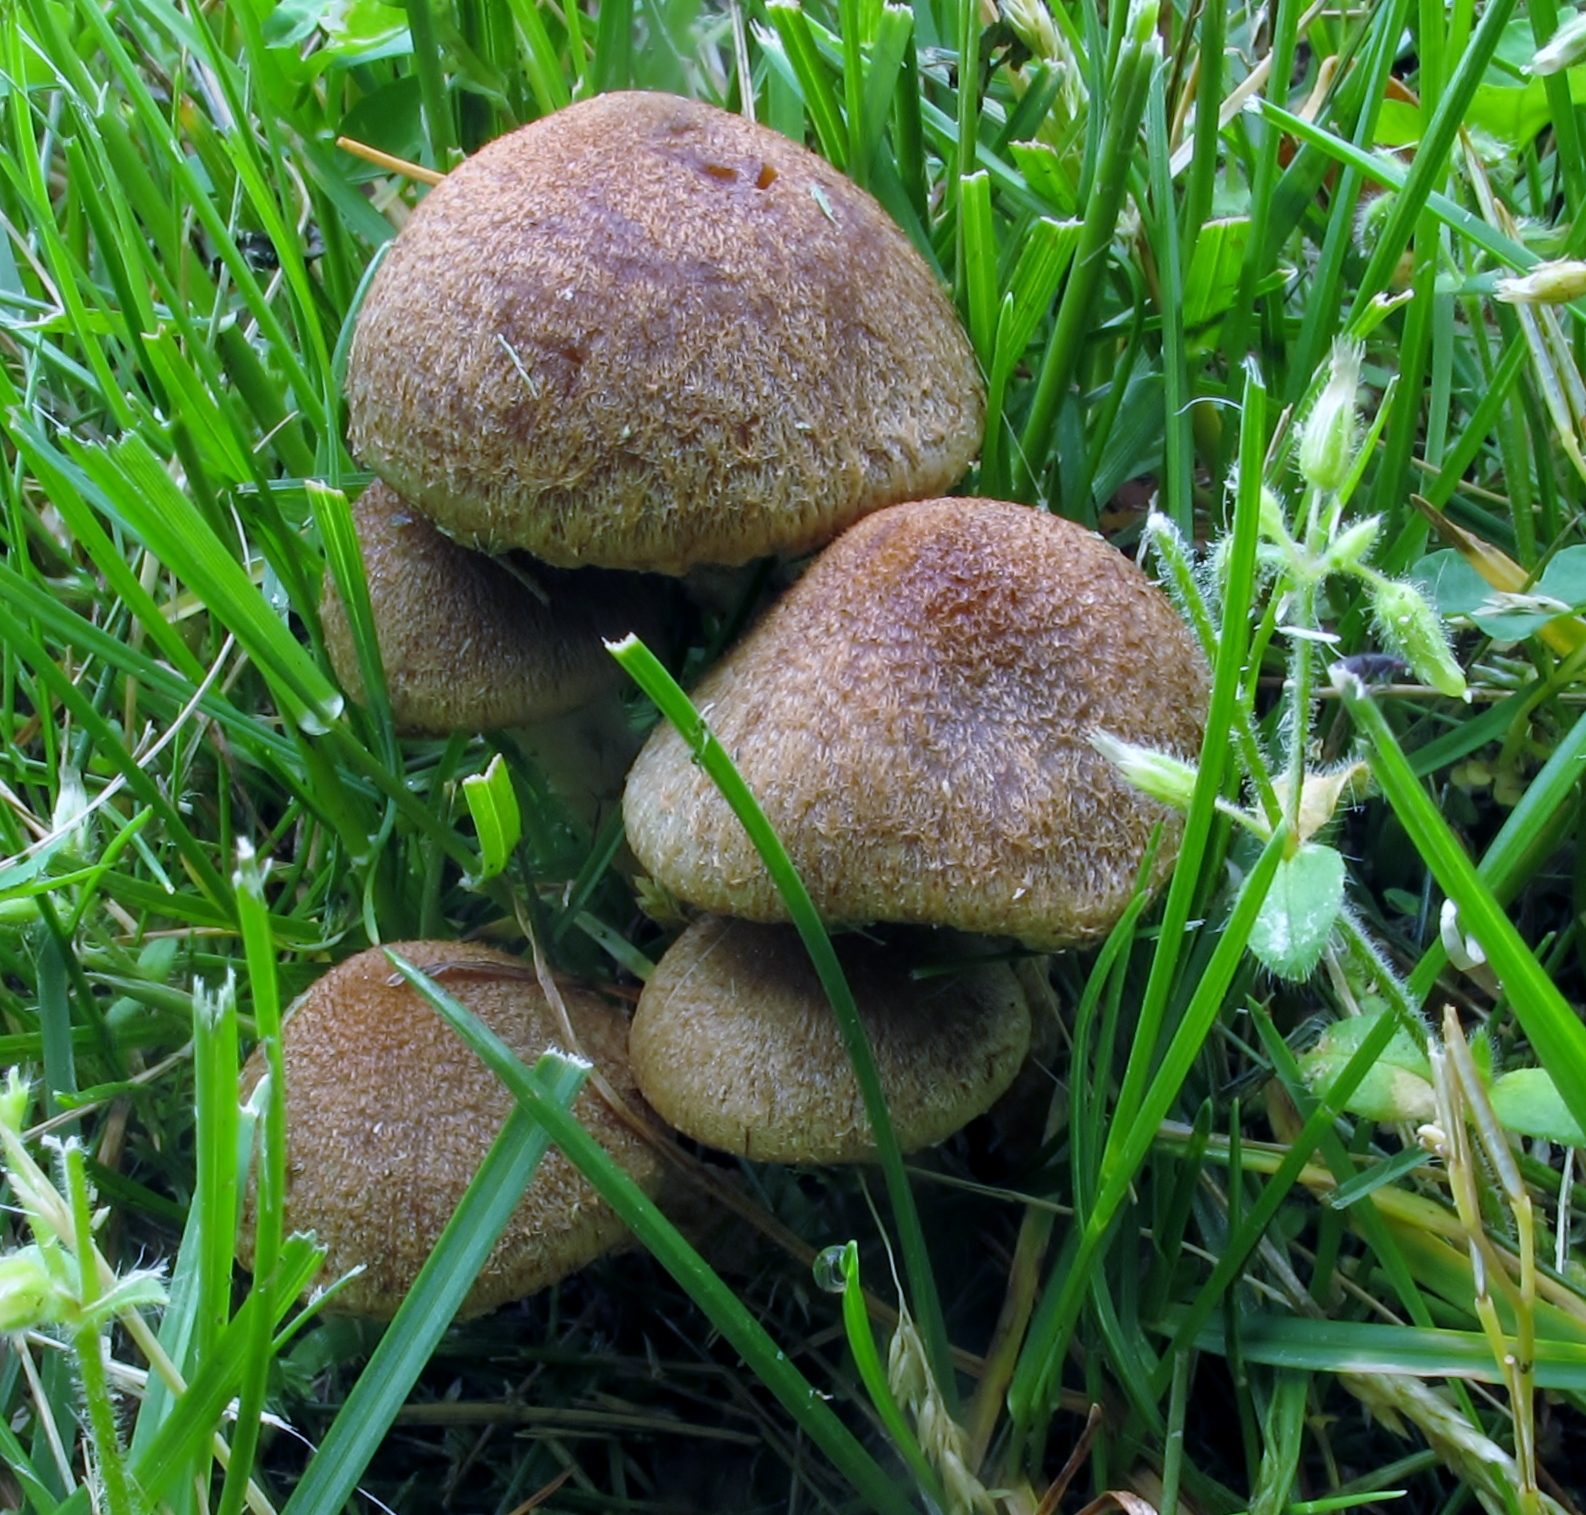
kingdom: Fungi
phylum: Basidiomycota
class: Agaricomycetes
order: Agaricales
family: Psathyrellaceae
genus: Lacrymaria
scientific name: Lacrymaria lacrymabunda
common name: Weeping widow
